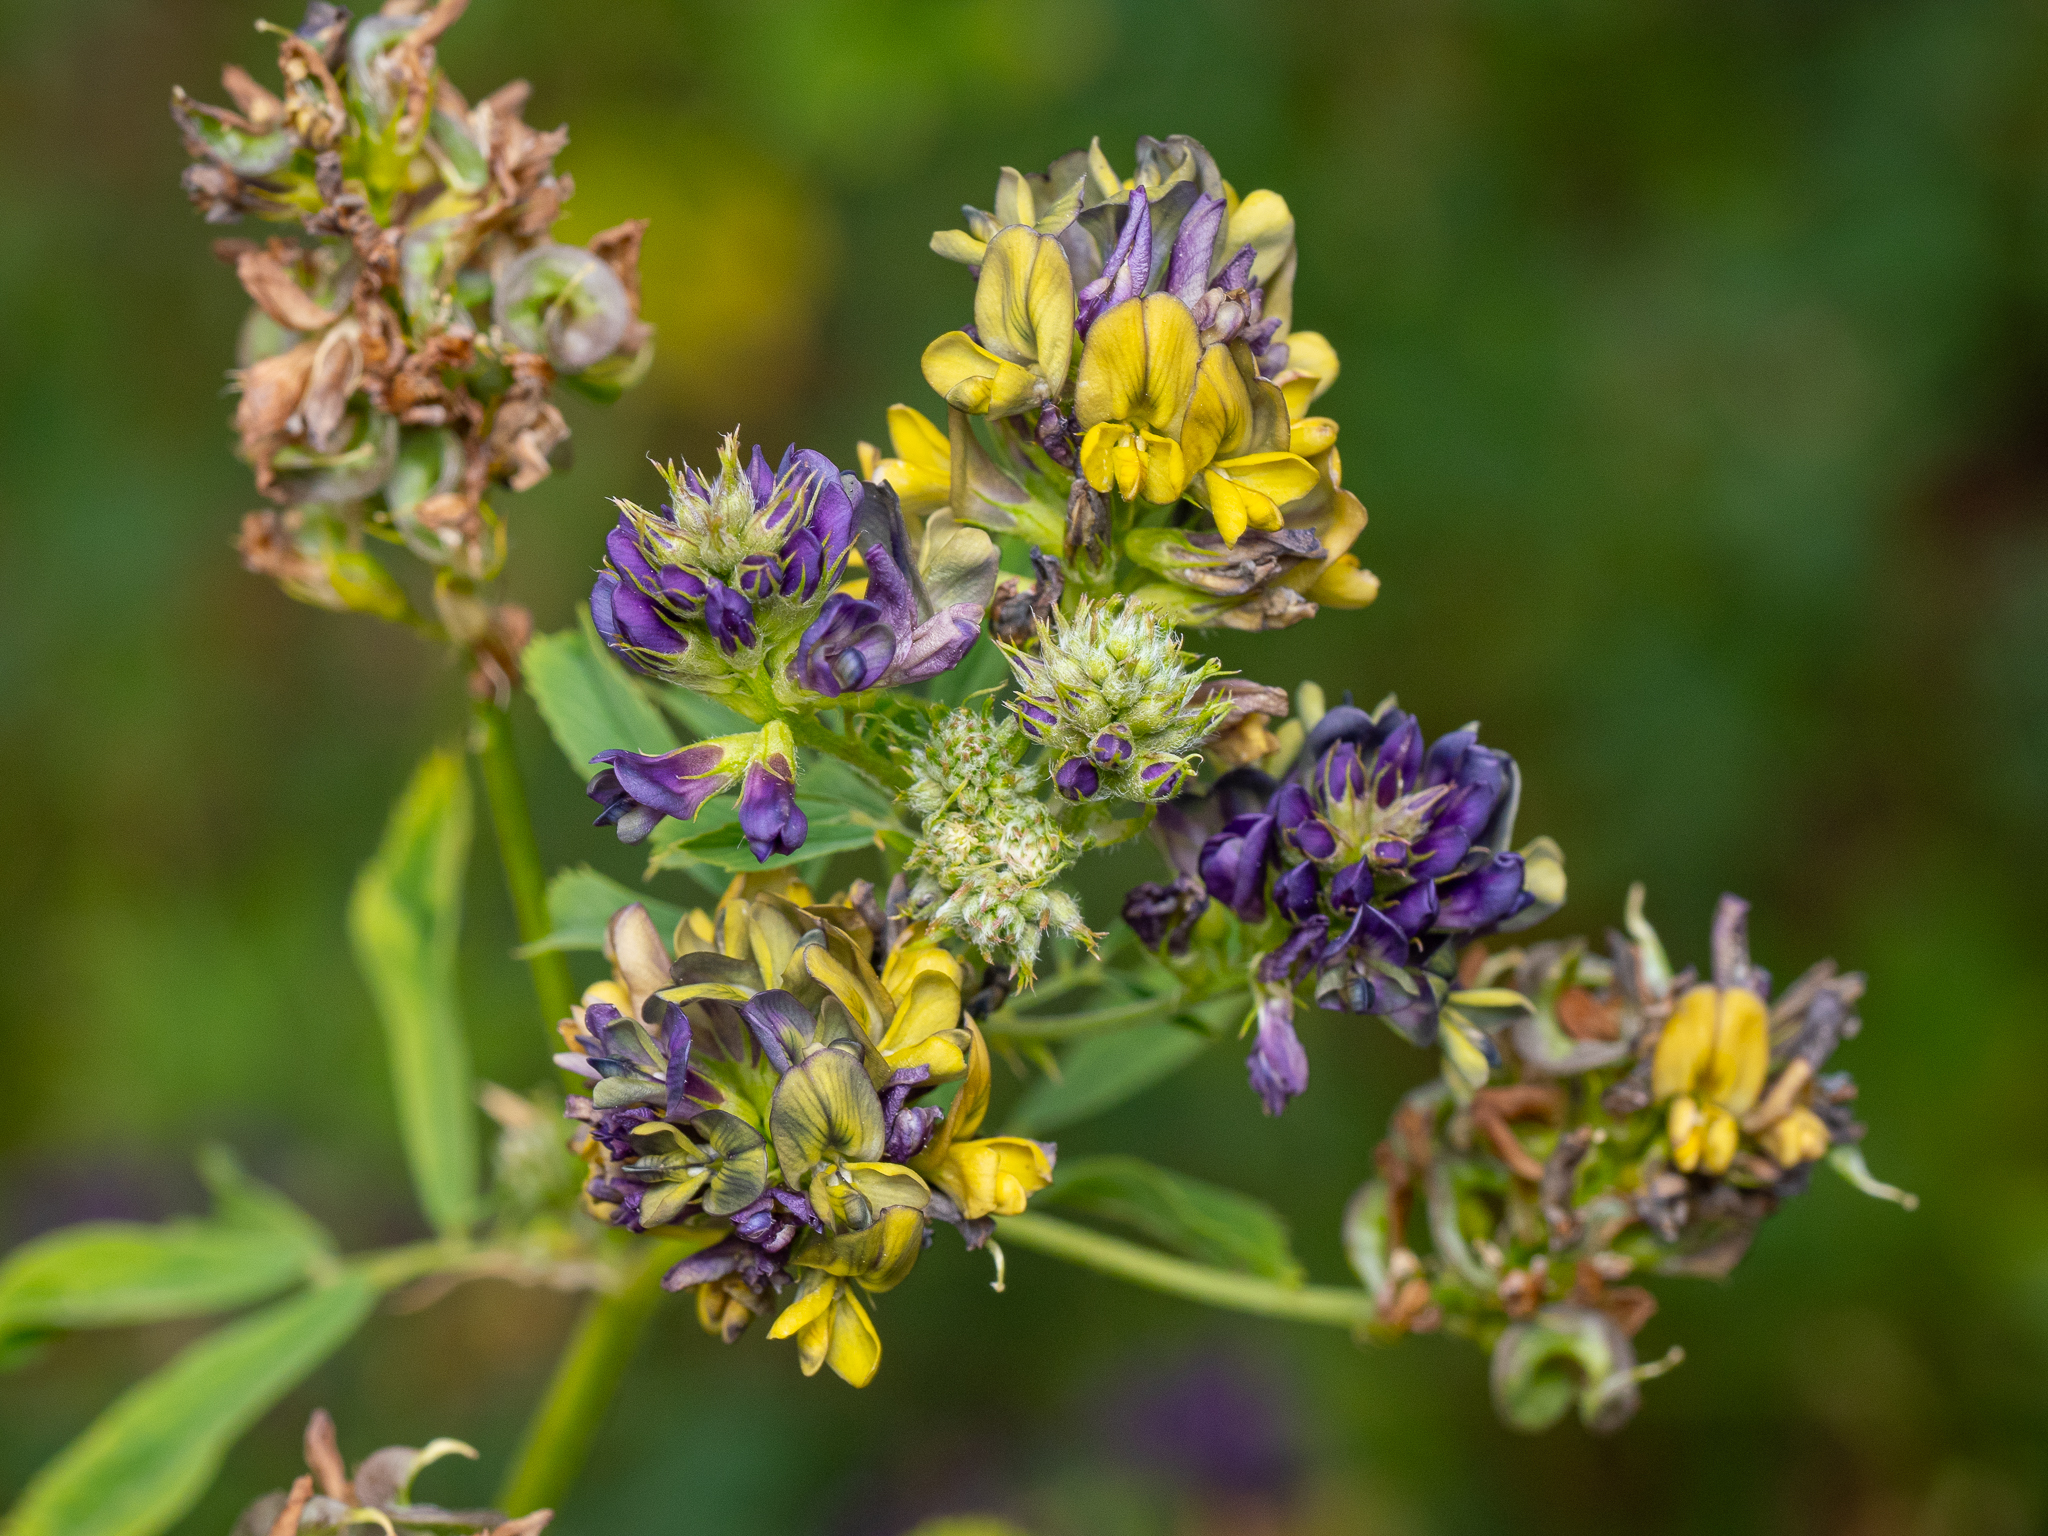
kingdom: Plantae
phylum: Tracheophyta
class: Magnoliopsida
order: Fabales
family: Fabaceae
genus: Medicago
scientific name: Medicago varia
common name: Sand lucerne
